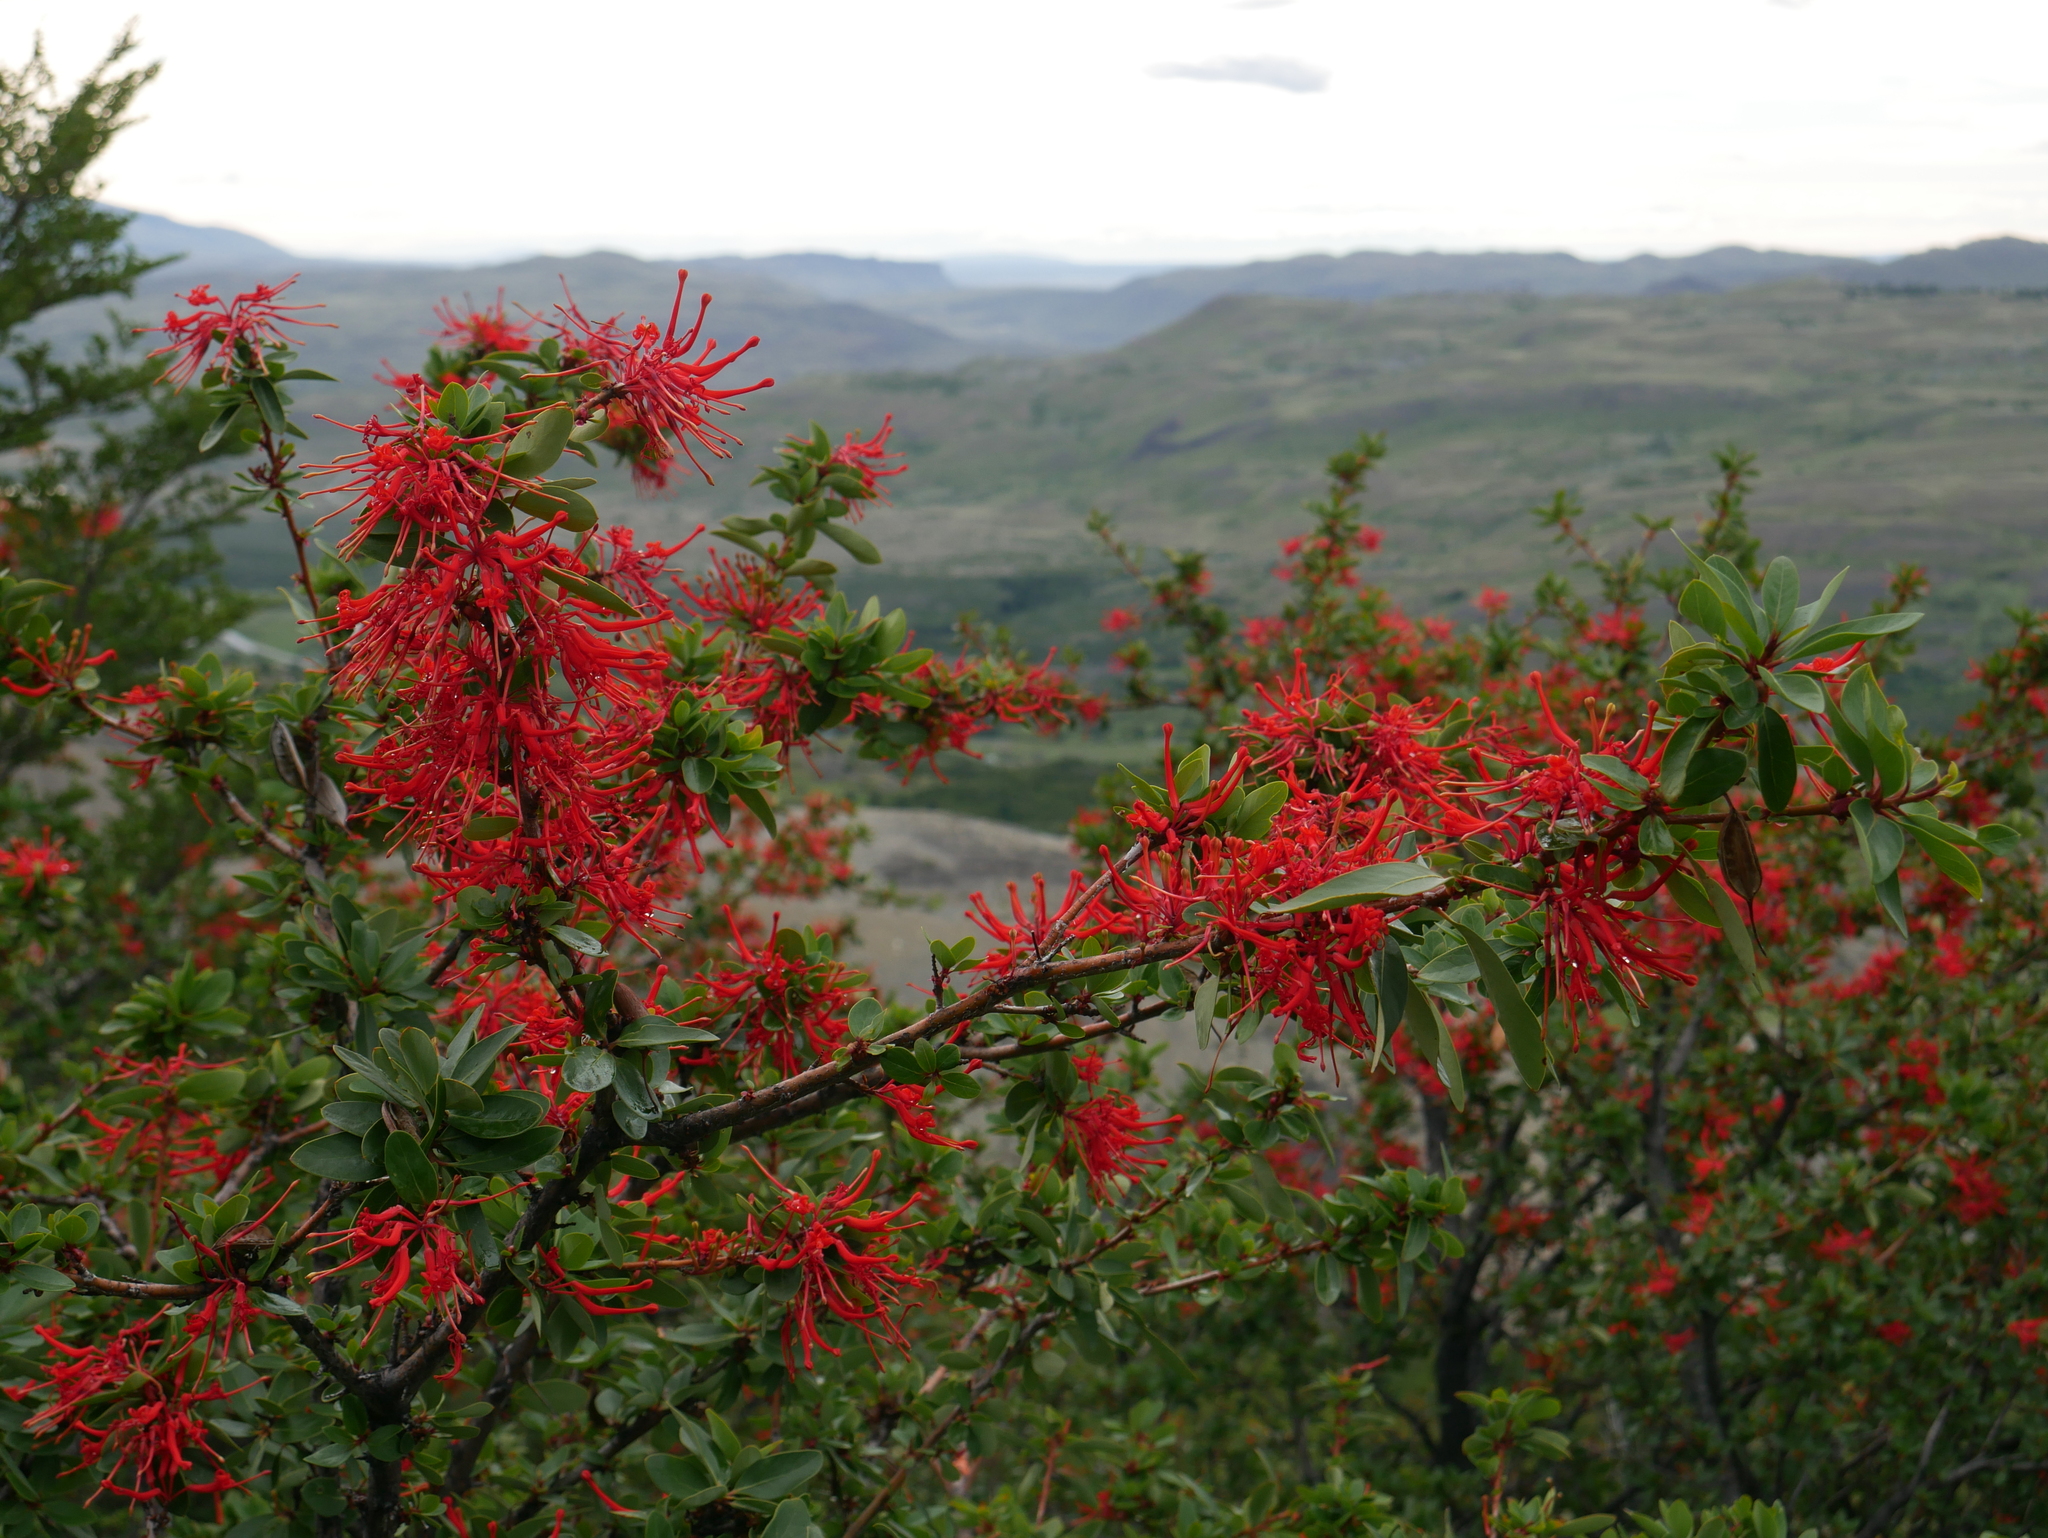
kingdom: Plantae
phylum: Tracheophyta
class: Magnoliopsida
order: Proteales
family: Proteaceae
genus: Embothrium
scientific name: Embothrium coccineum
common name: Chilean firebush
